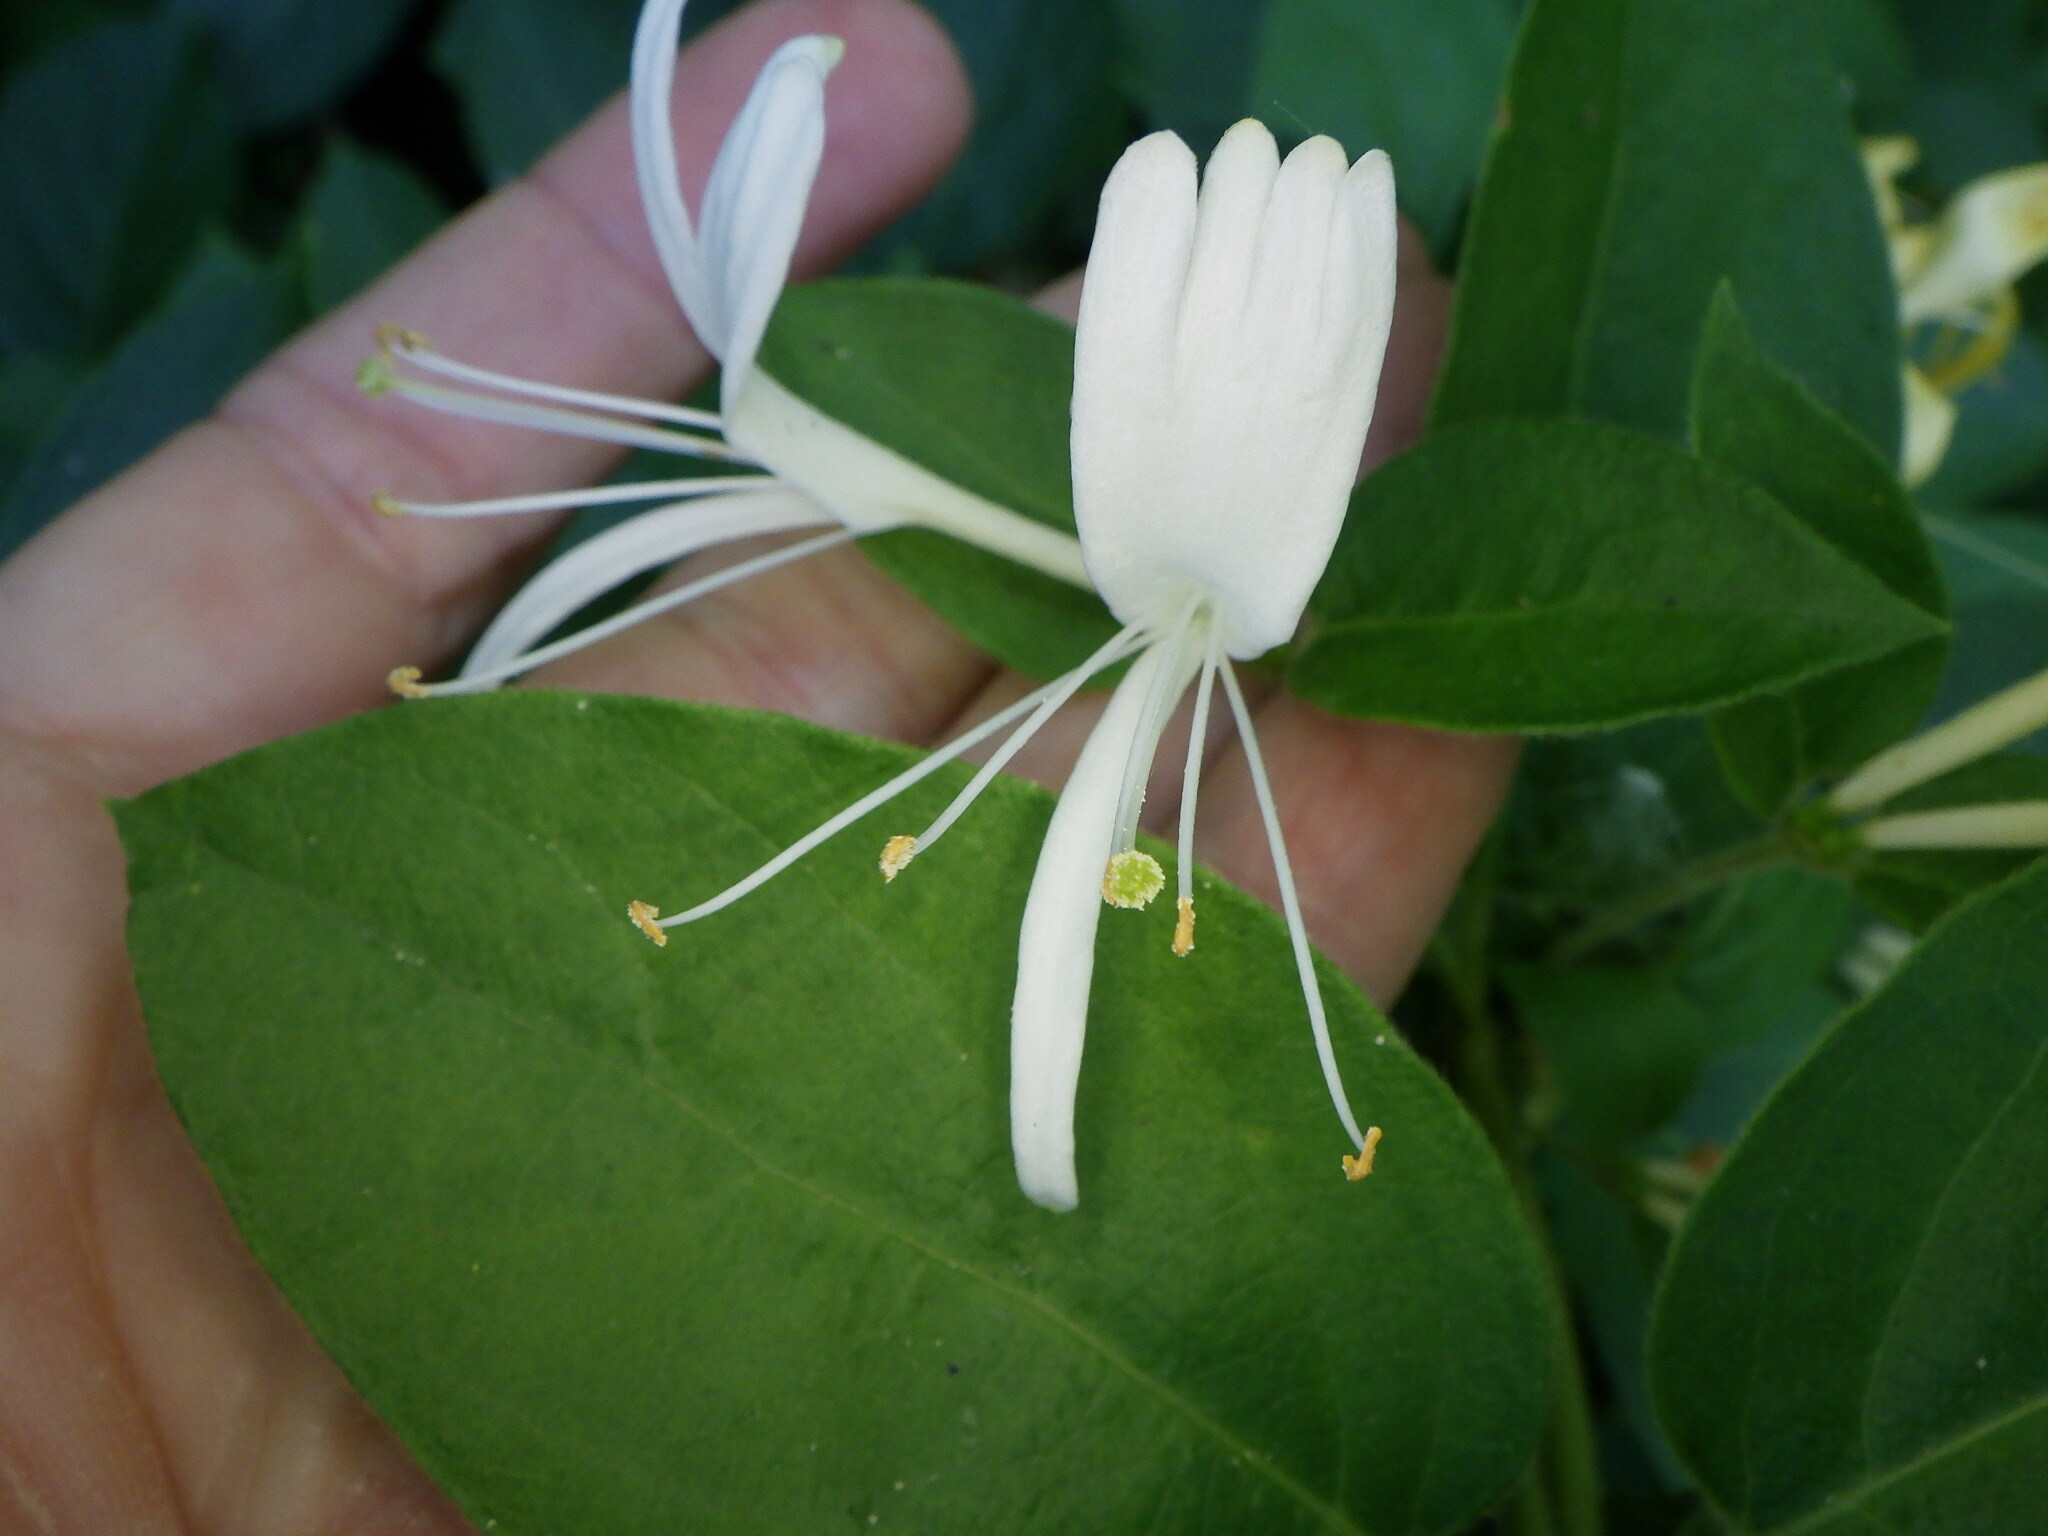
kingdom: Plantae
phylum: Tracheophyta
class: Magnoliopsida
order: Dipsacales
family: Caprifoliaceae
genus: Lonicera
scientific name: Lonicera japonica
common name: Japanese honeysuckle
